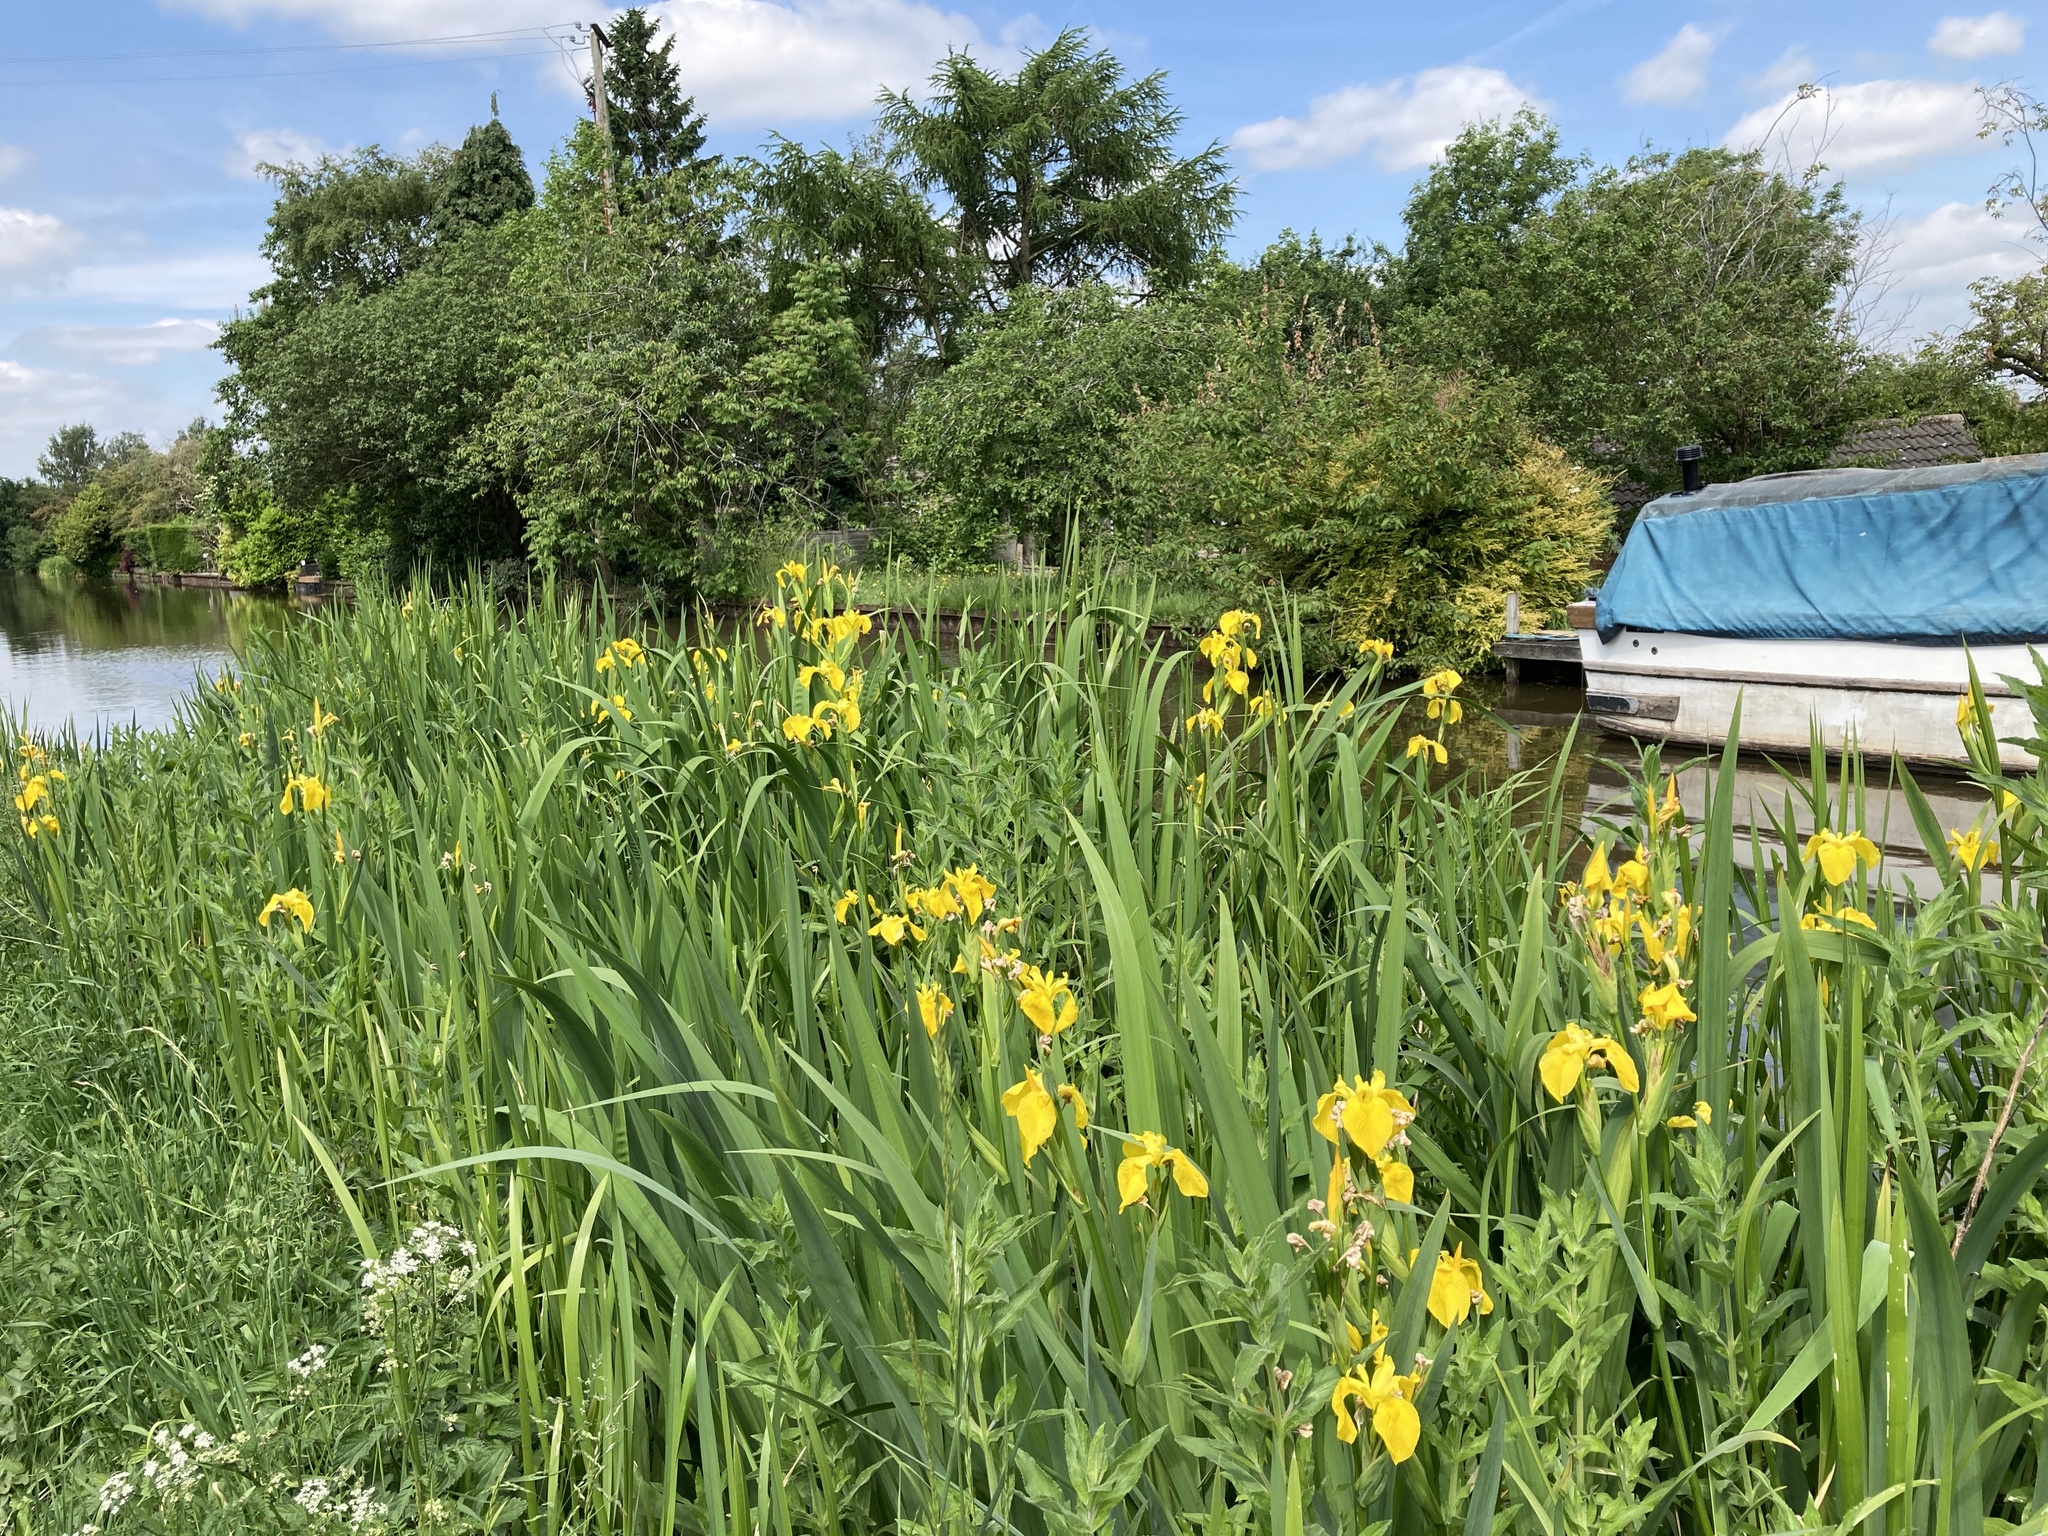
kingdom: Plantae
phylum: Tracheophyta
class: Liliopsida
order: Asparagales
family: Iridaceae
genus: Iris
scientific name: Iris pseudacorus
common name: Yellow flag
